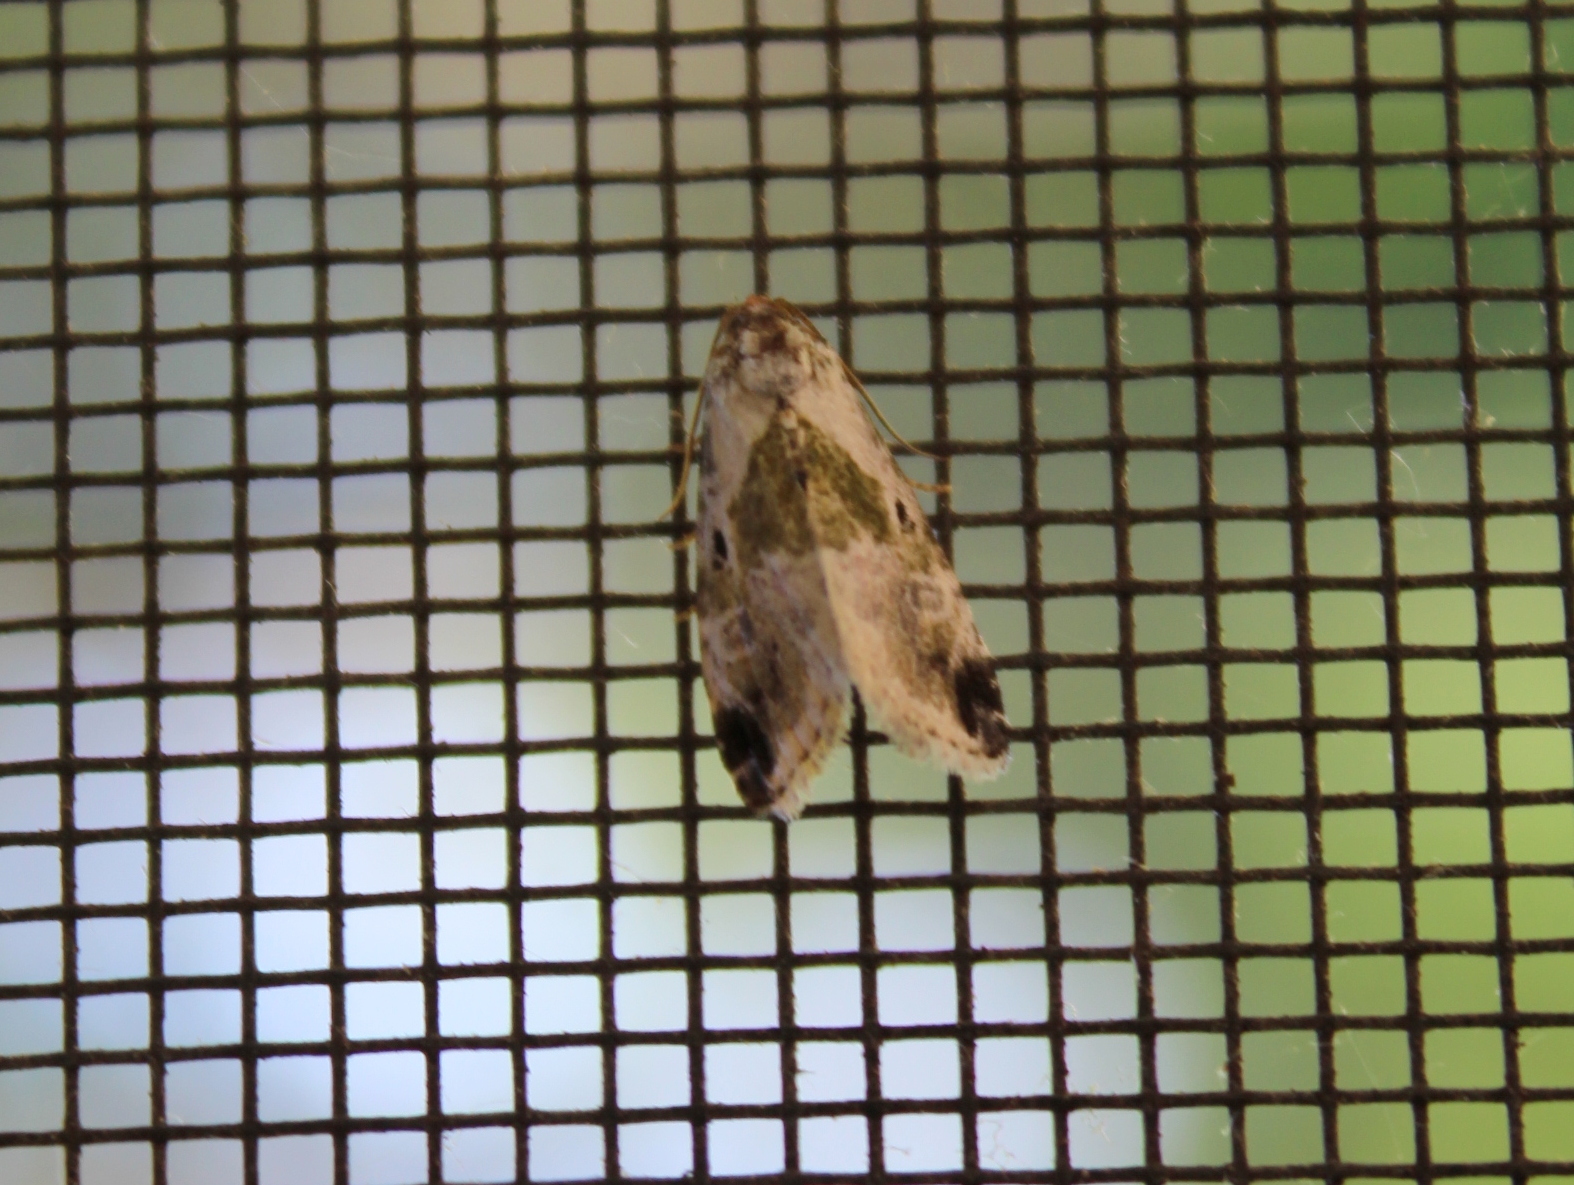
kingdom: Animalia
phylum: Arthropoda
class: Insecta
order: Lepidoptera
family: Noctuidae
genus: Maliattha
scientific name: Maliattha synochitis
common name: Black-dotted glyph
